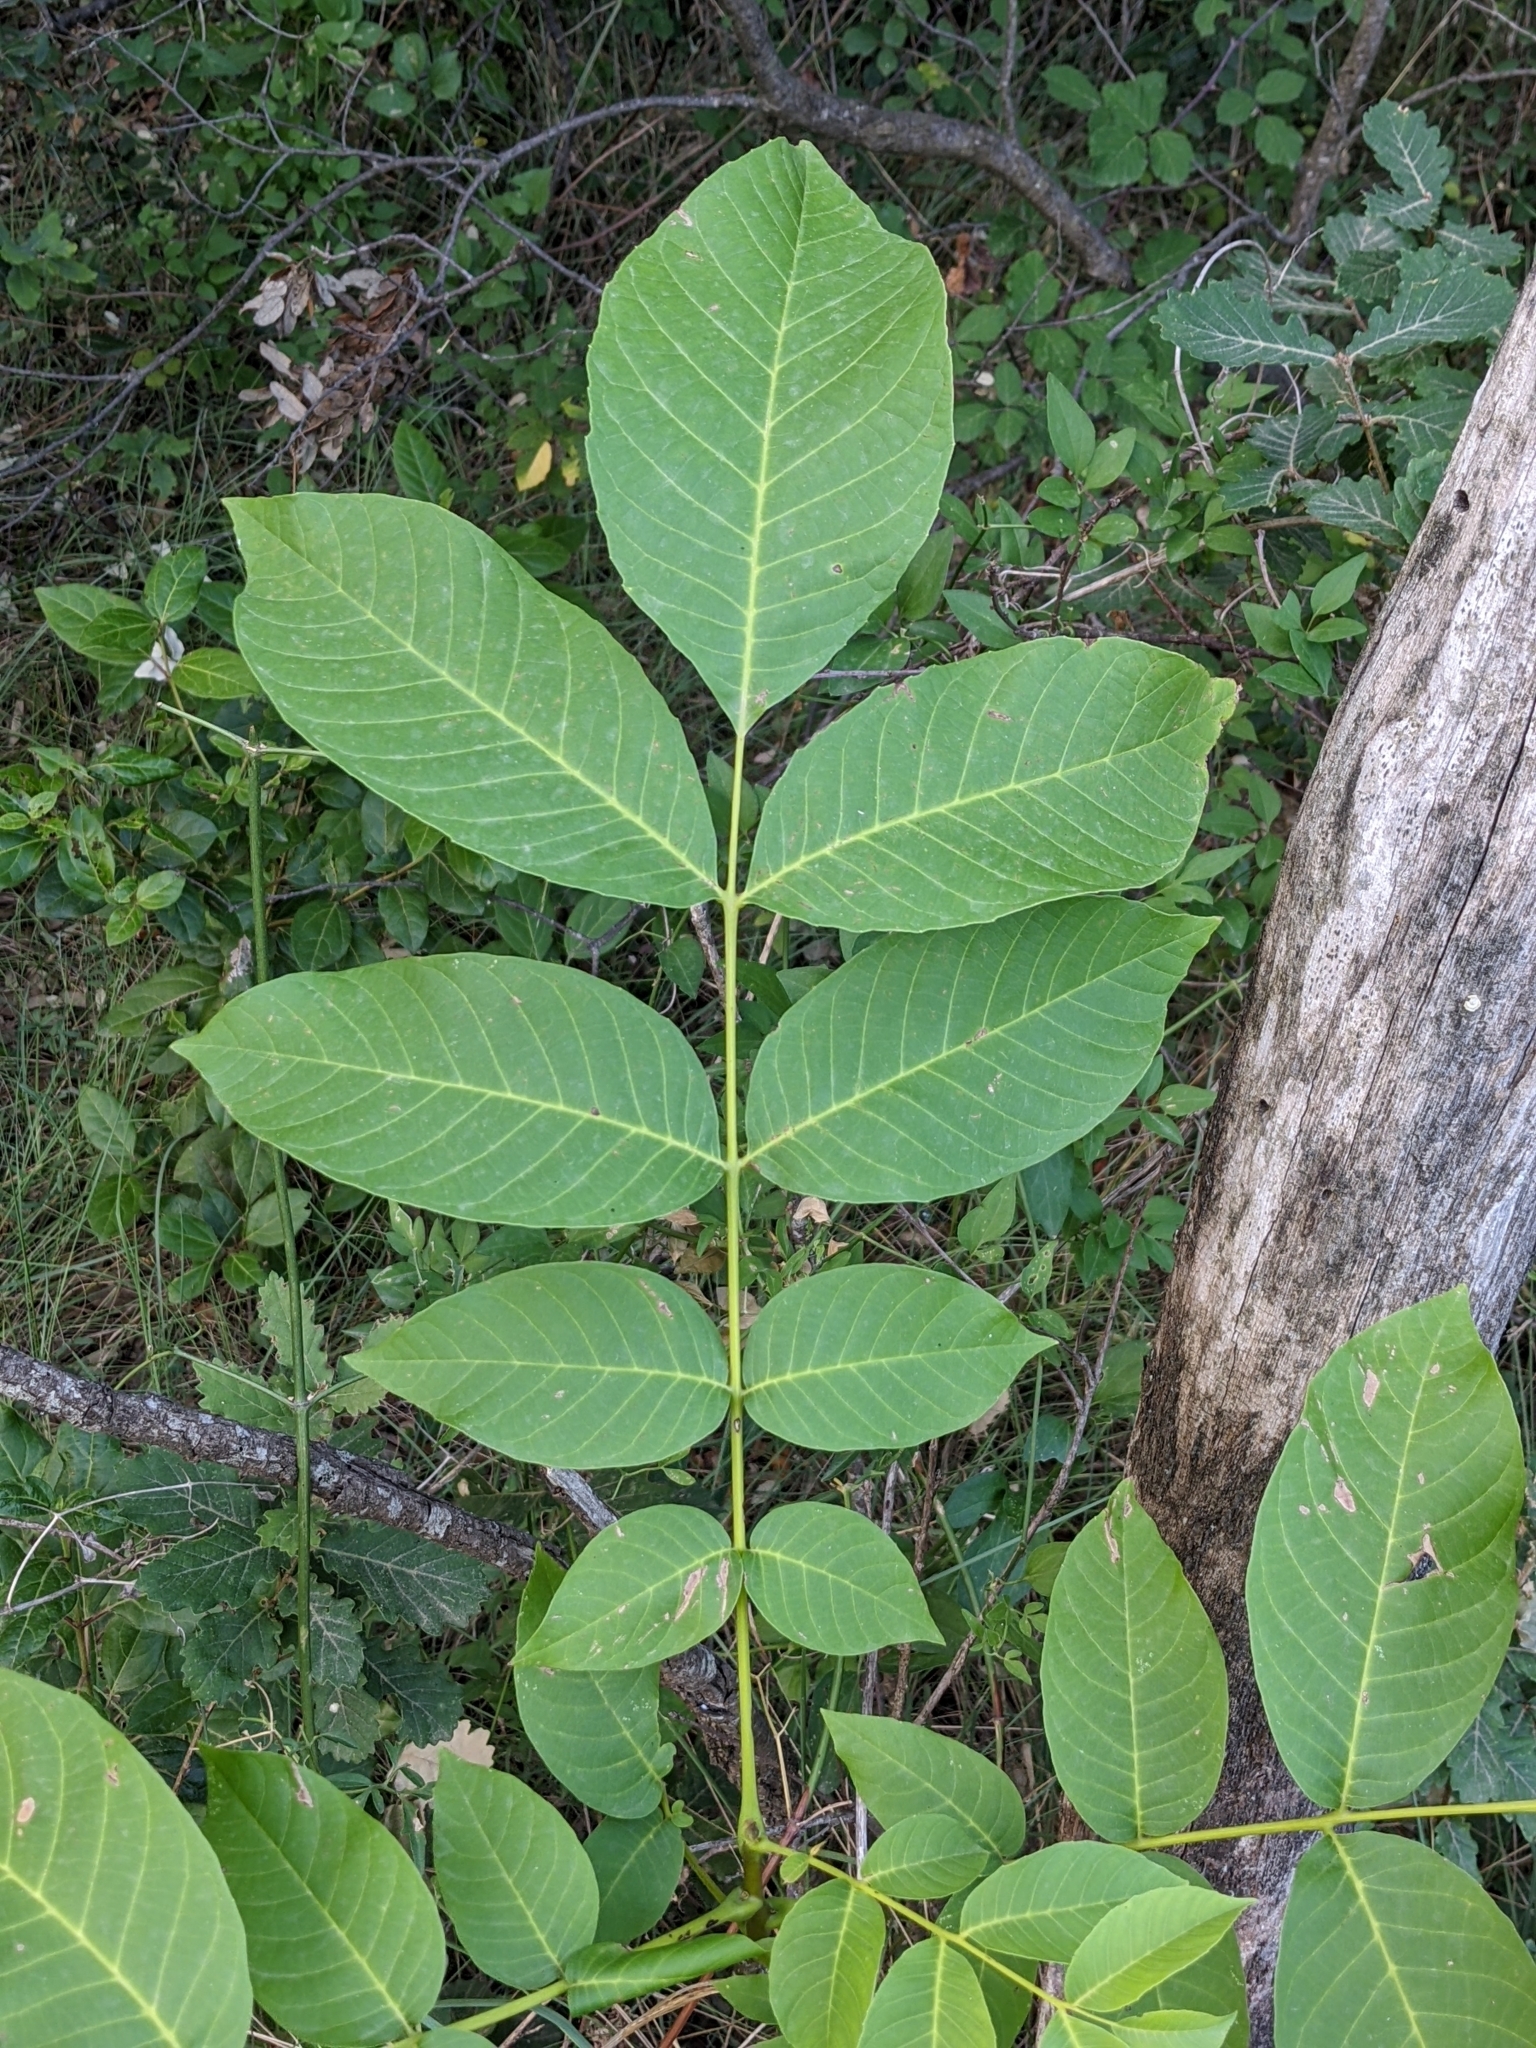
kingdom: Plantae
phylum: Tracheophyta
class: Magnoliopsida
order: Fagales
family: Juglandaceae
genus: Juglans
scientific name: Juglans regia
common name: Walnut
